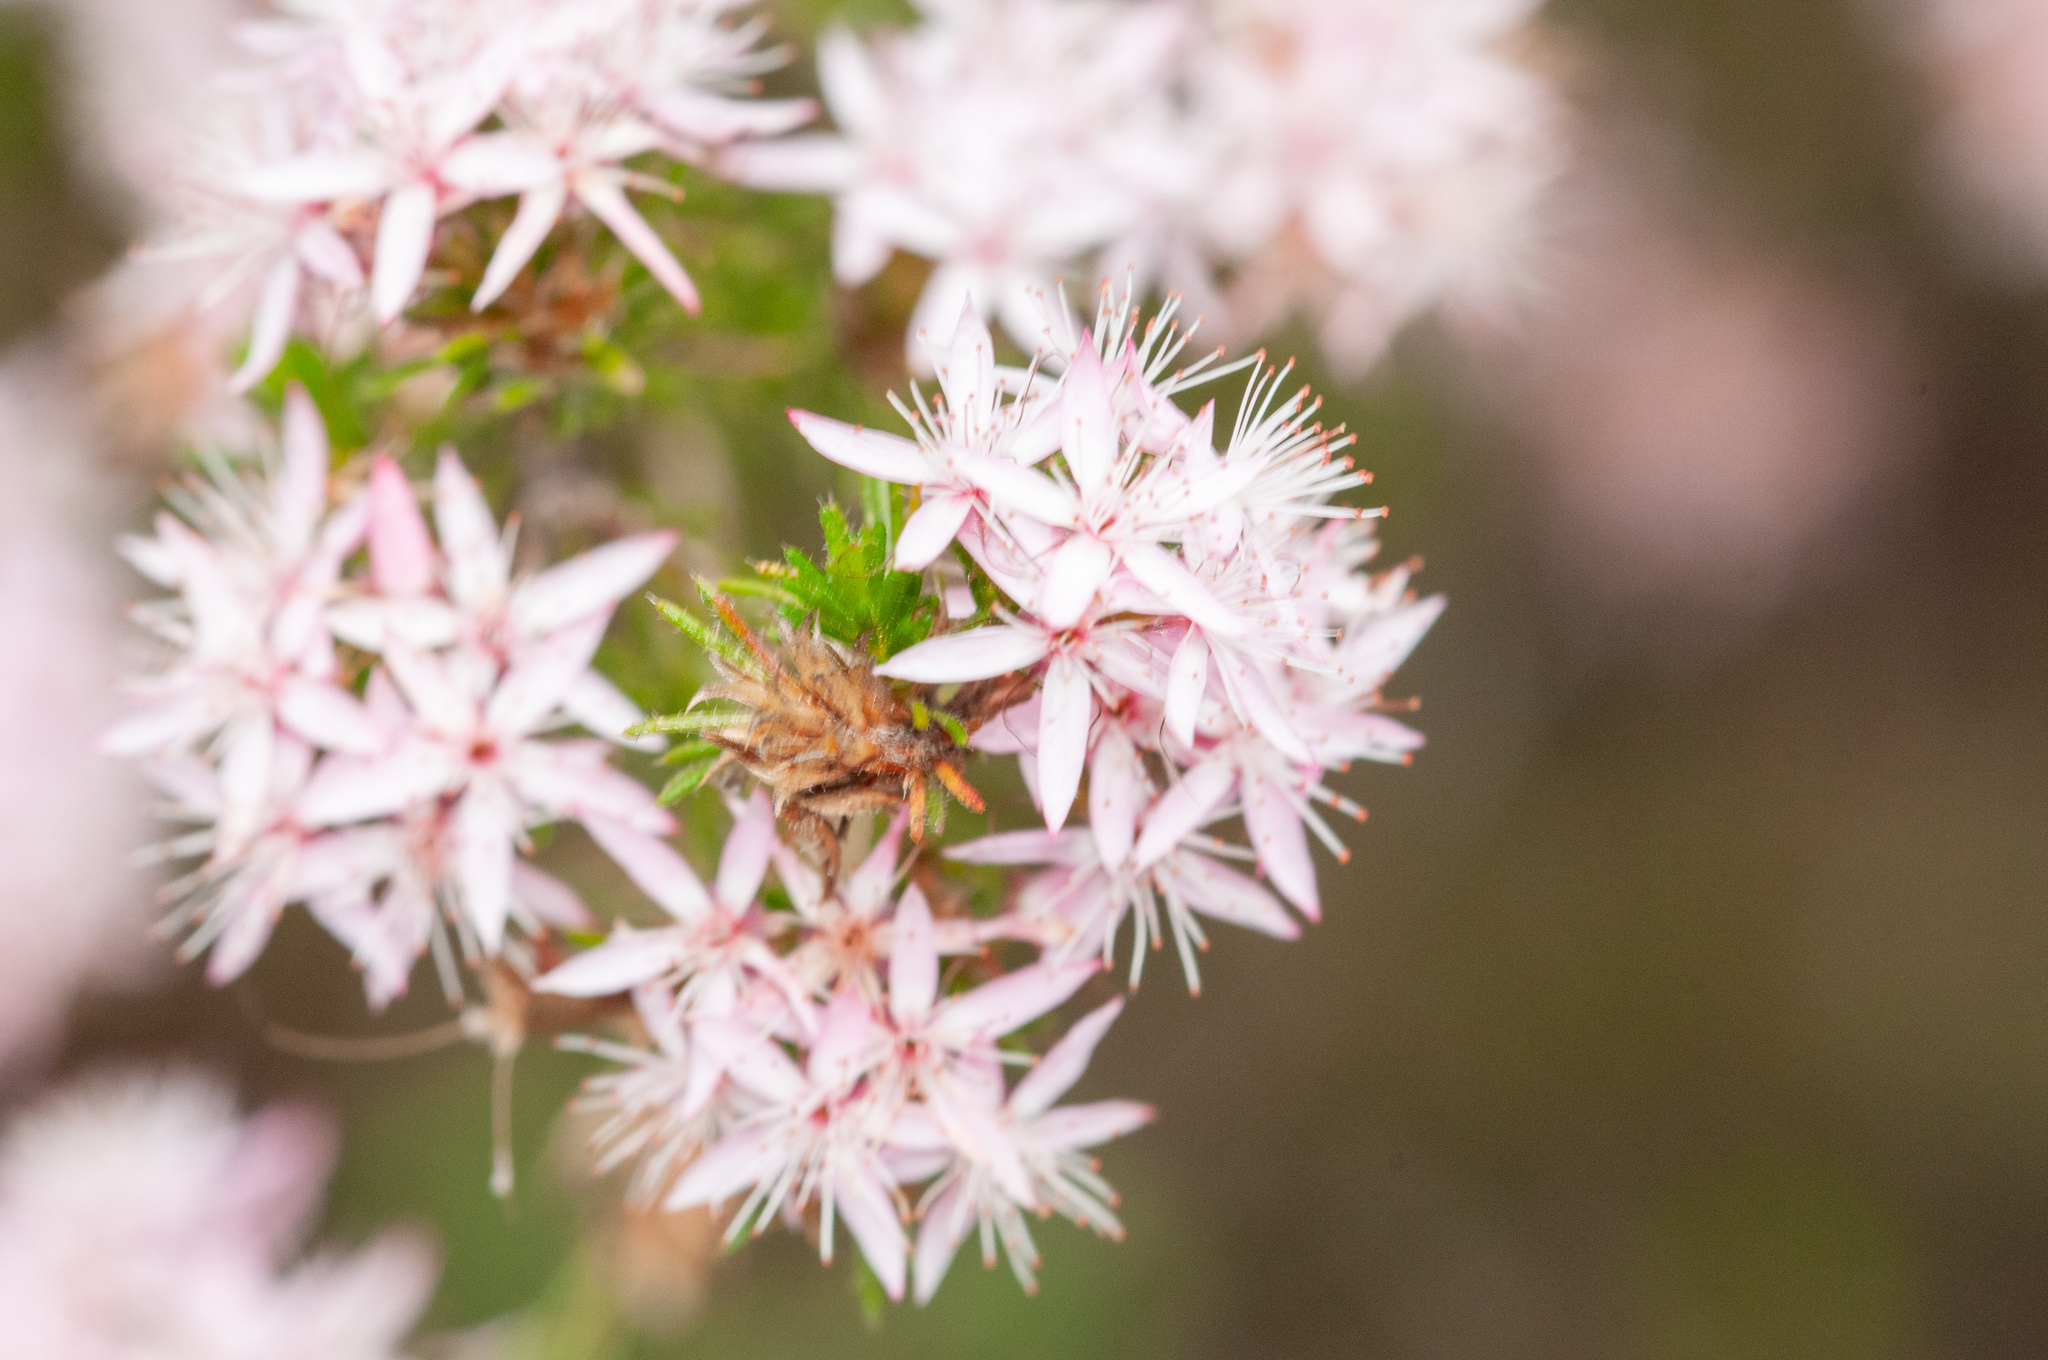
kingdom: Plantae
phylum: Tracheophyta
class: Magnoliopsida
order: Myrtales
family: Myrtaceae
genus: Calytrix
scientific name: Calytrix tetragona
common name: Common fringe myrtle
